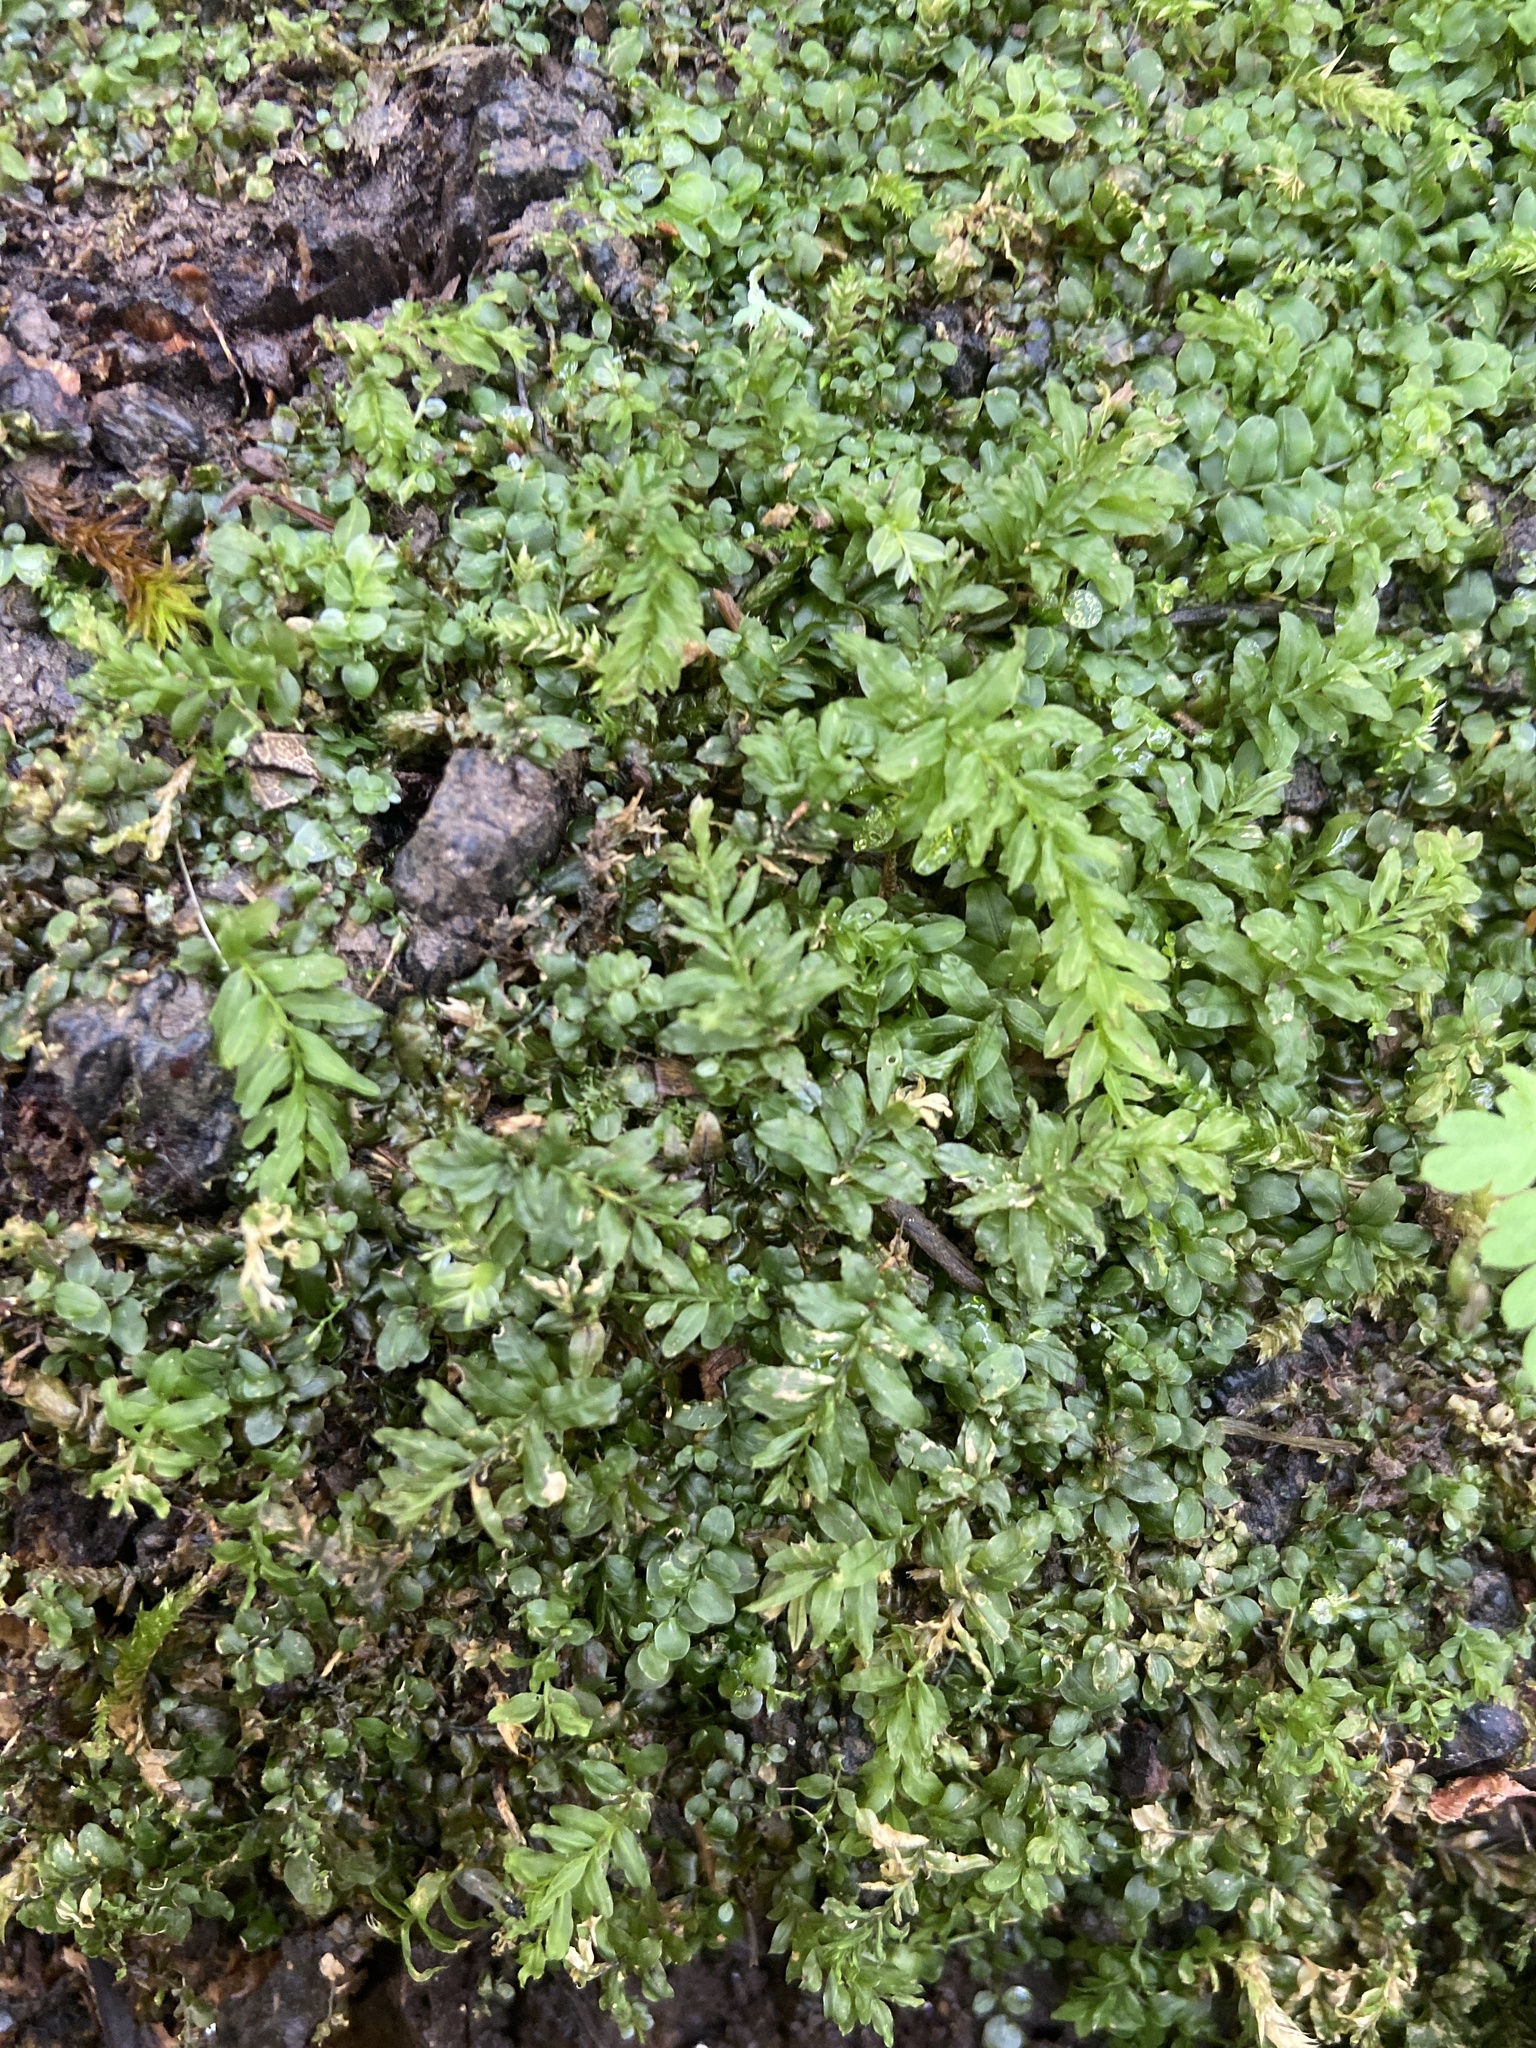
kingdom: Plantae
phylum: Bryophyta
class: Bryopsida
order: Bryales
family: Mniaceae
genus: Plagiomnium
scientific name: Plagiomnium undulatum
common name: Hart's-tongue thyme-moss
